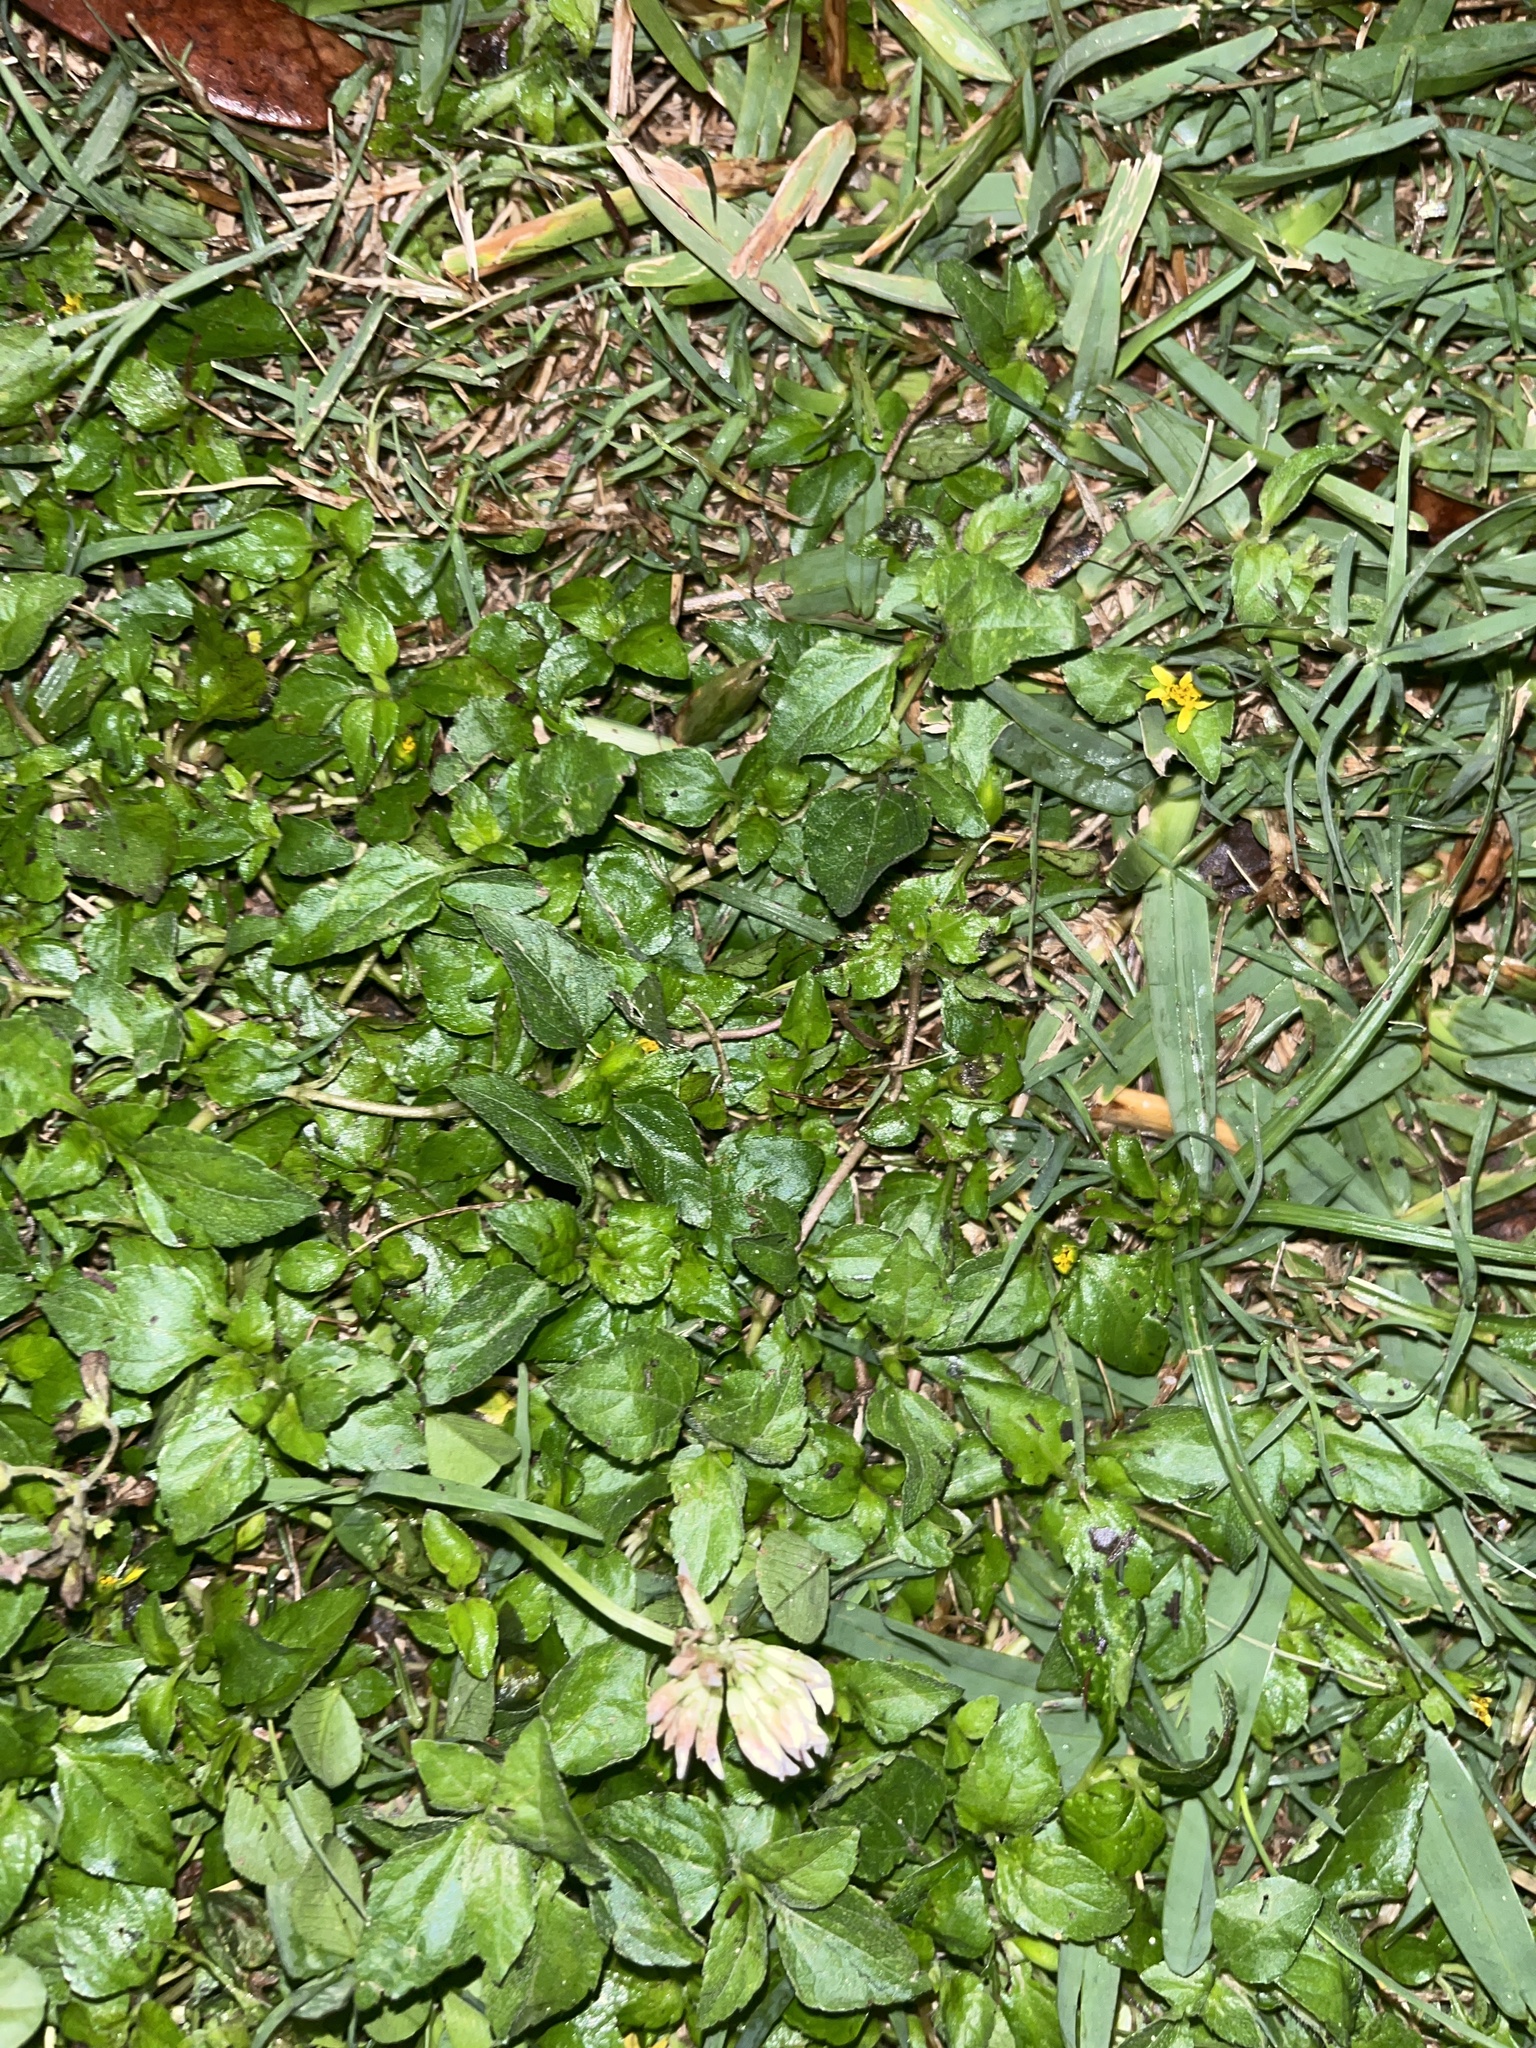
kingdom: Plantae
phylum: Tracheophyta
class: Magnoliopsida
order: Asterales
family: Asteraceae
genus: Calyptocarpus
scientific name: Calyptocarpus vialis
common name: Straggler daisy
